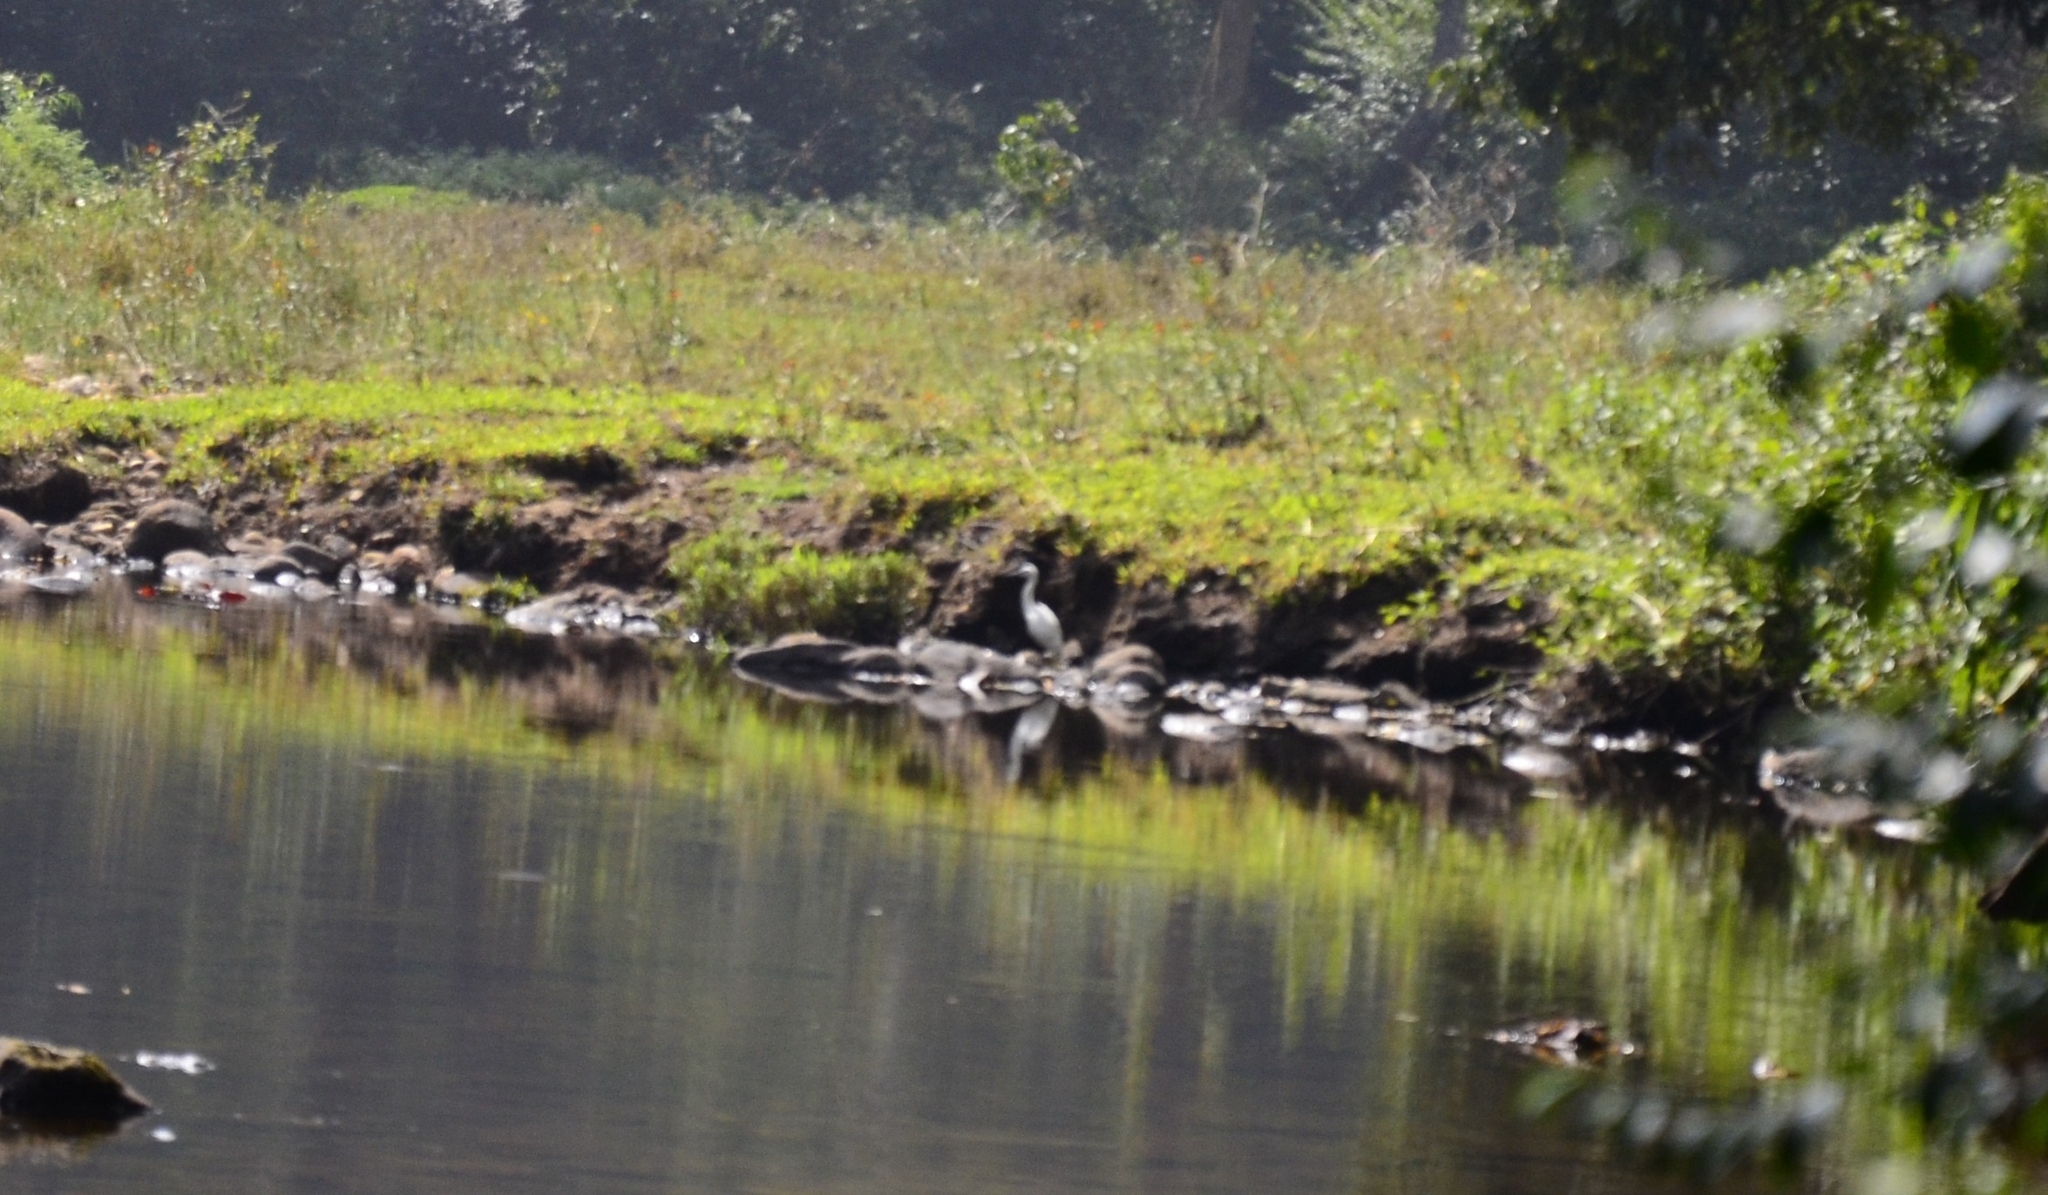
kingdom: Animalia
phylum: Chordata
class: Aves
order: Pelecaniformes
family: Ardeidae
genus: Egretta
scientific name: Egretta garzetta
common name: Little egret
